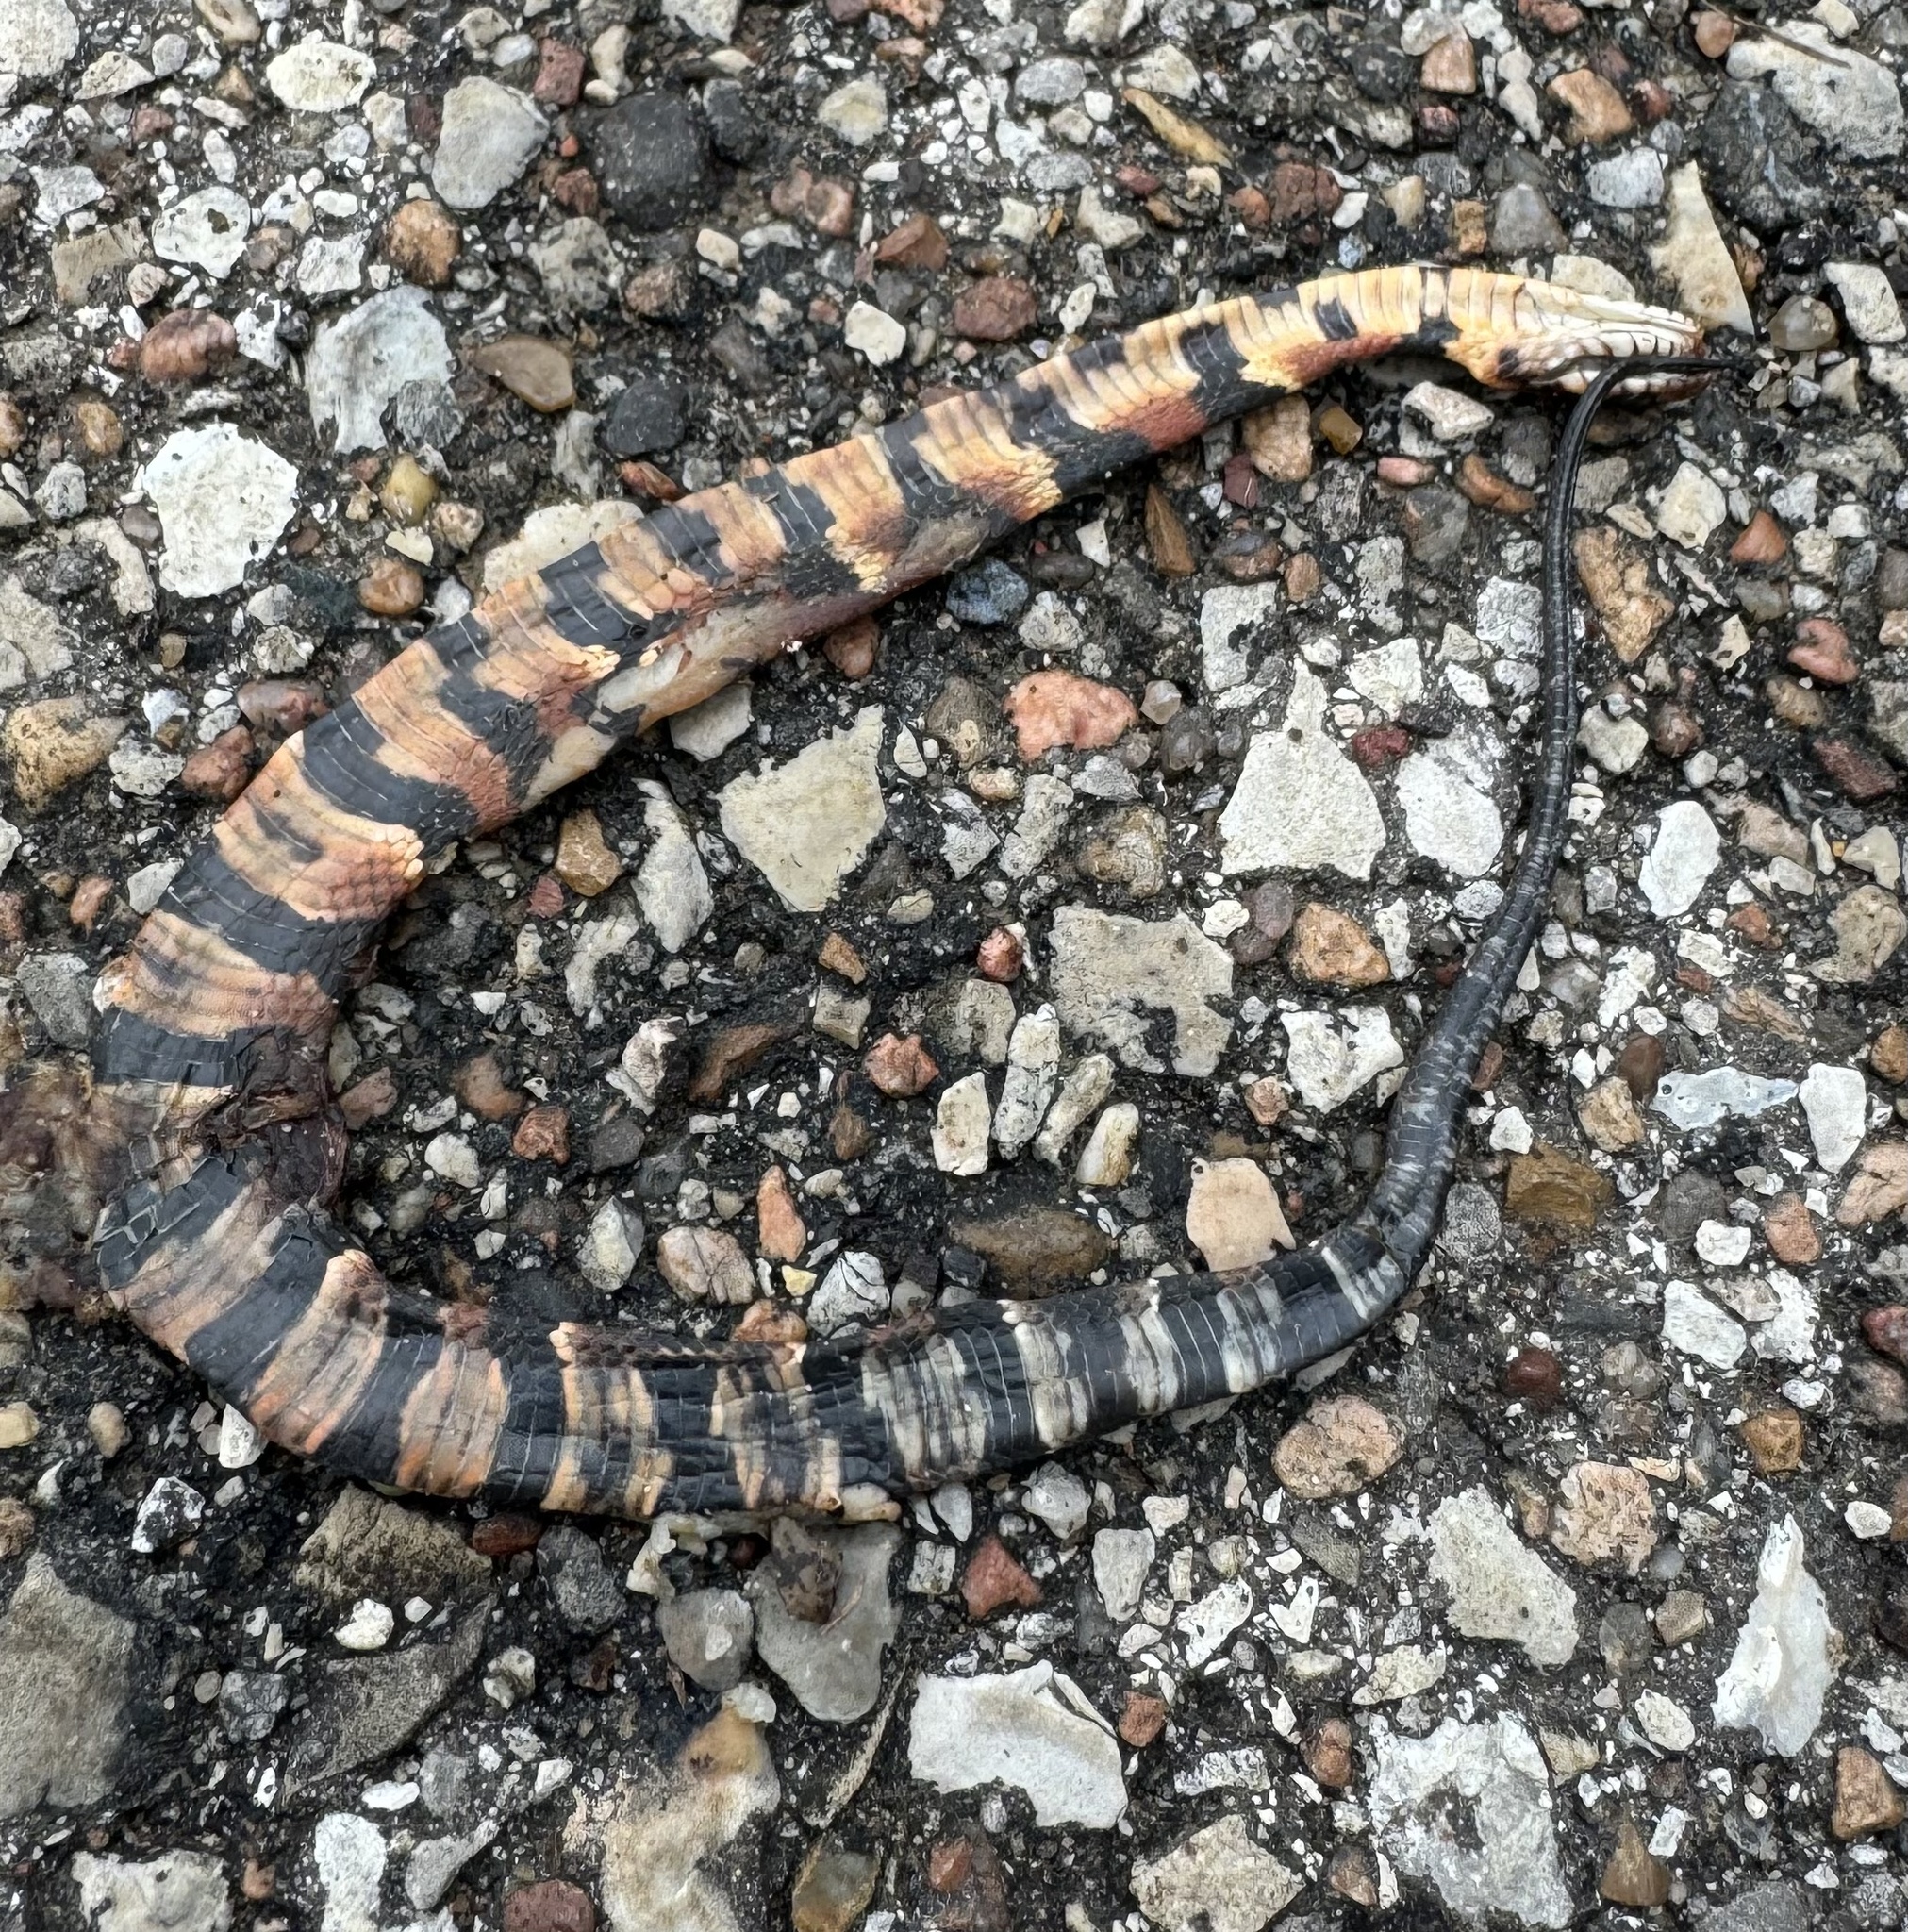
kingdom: Animalia
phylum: Chordata
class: Squamata
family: Colubridae
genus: Nerodia
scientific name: Nerodia fasciata
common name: Southern water snake
